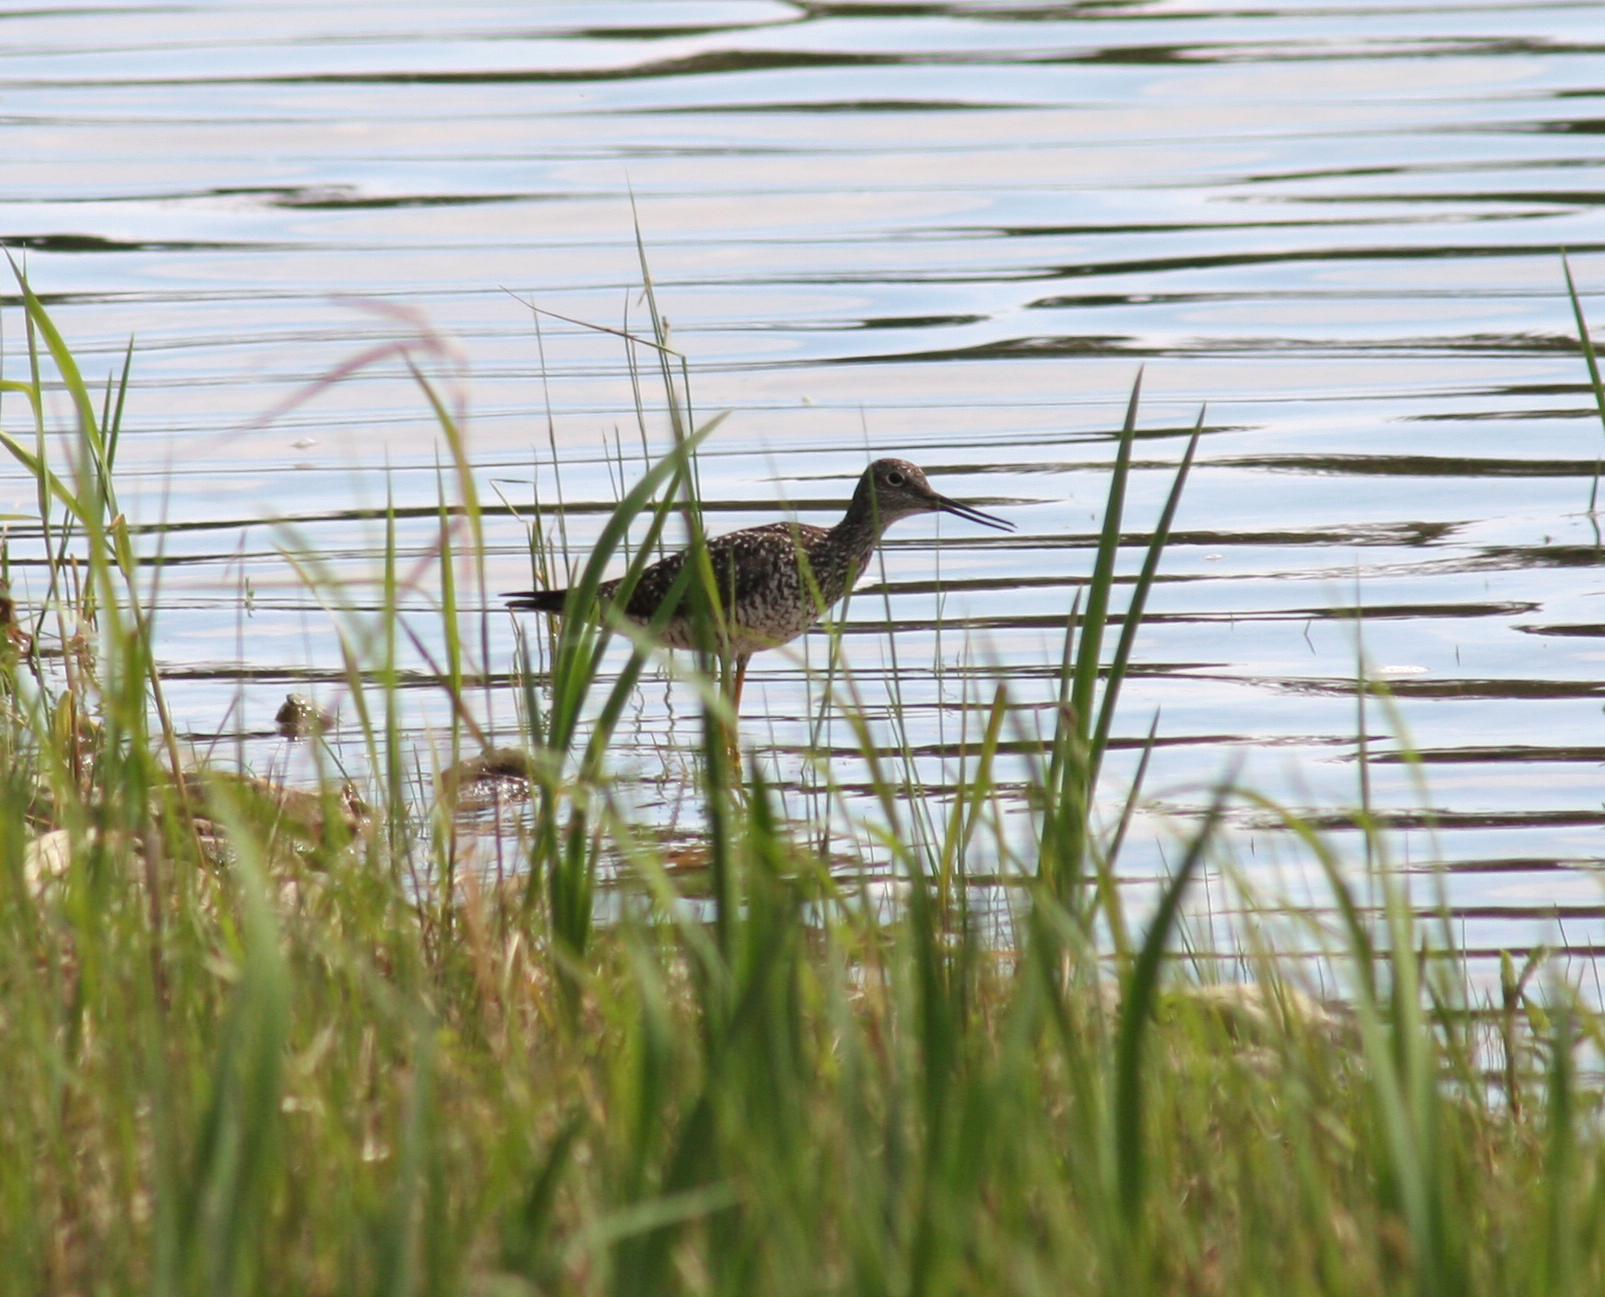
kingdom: Animalia
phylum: Chordata
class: Aves
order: Charadriiformes
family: Scolopacidae
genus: Tringa
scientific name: Tringa melanoleuca
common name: Greater yellowlegs
